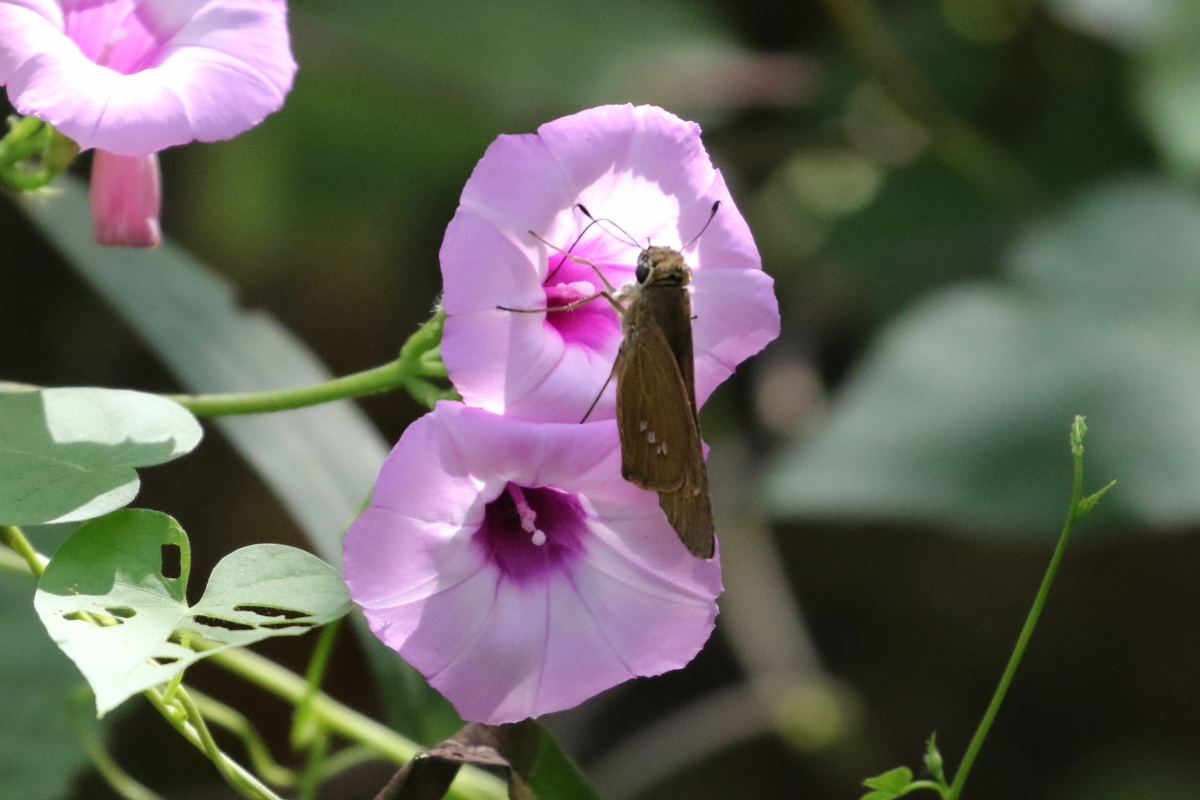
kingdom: Animalia
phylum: Arthropoda
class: Insecta
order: Lepidoptera
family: Hesperiidae
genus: Calpodes
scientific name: Calpodes ethlius
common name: Brazilian skipper
